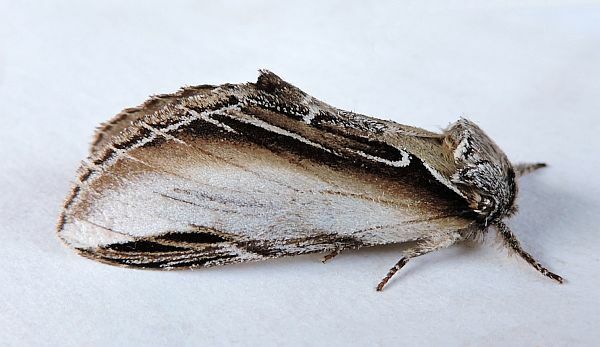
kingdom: Animalia
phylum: Arthropoda
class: Insecta
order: Lepidoptera
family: Notodontidae
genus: Pheosia
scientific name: Pheosia rimosa
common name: Black-rimmed prominent
